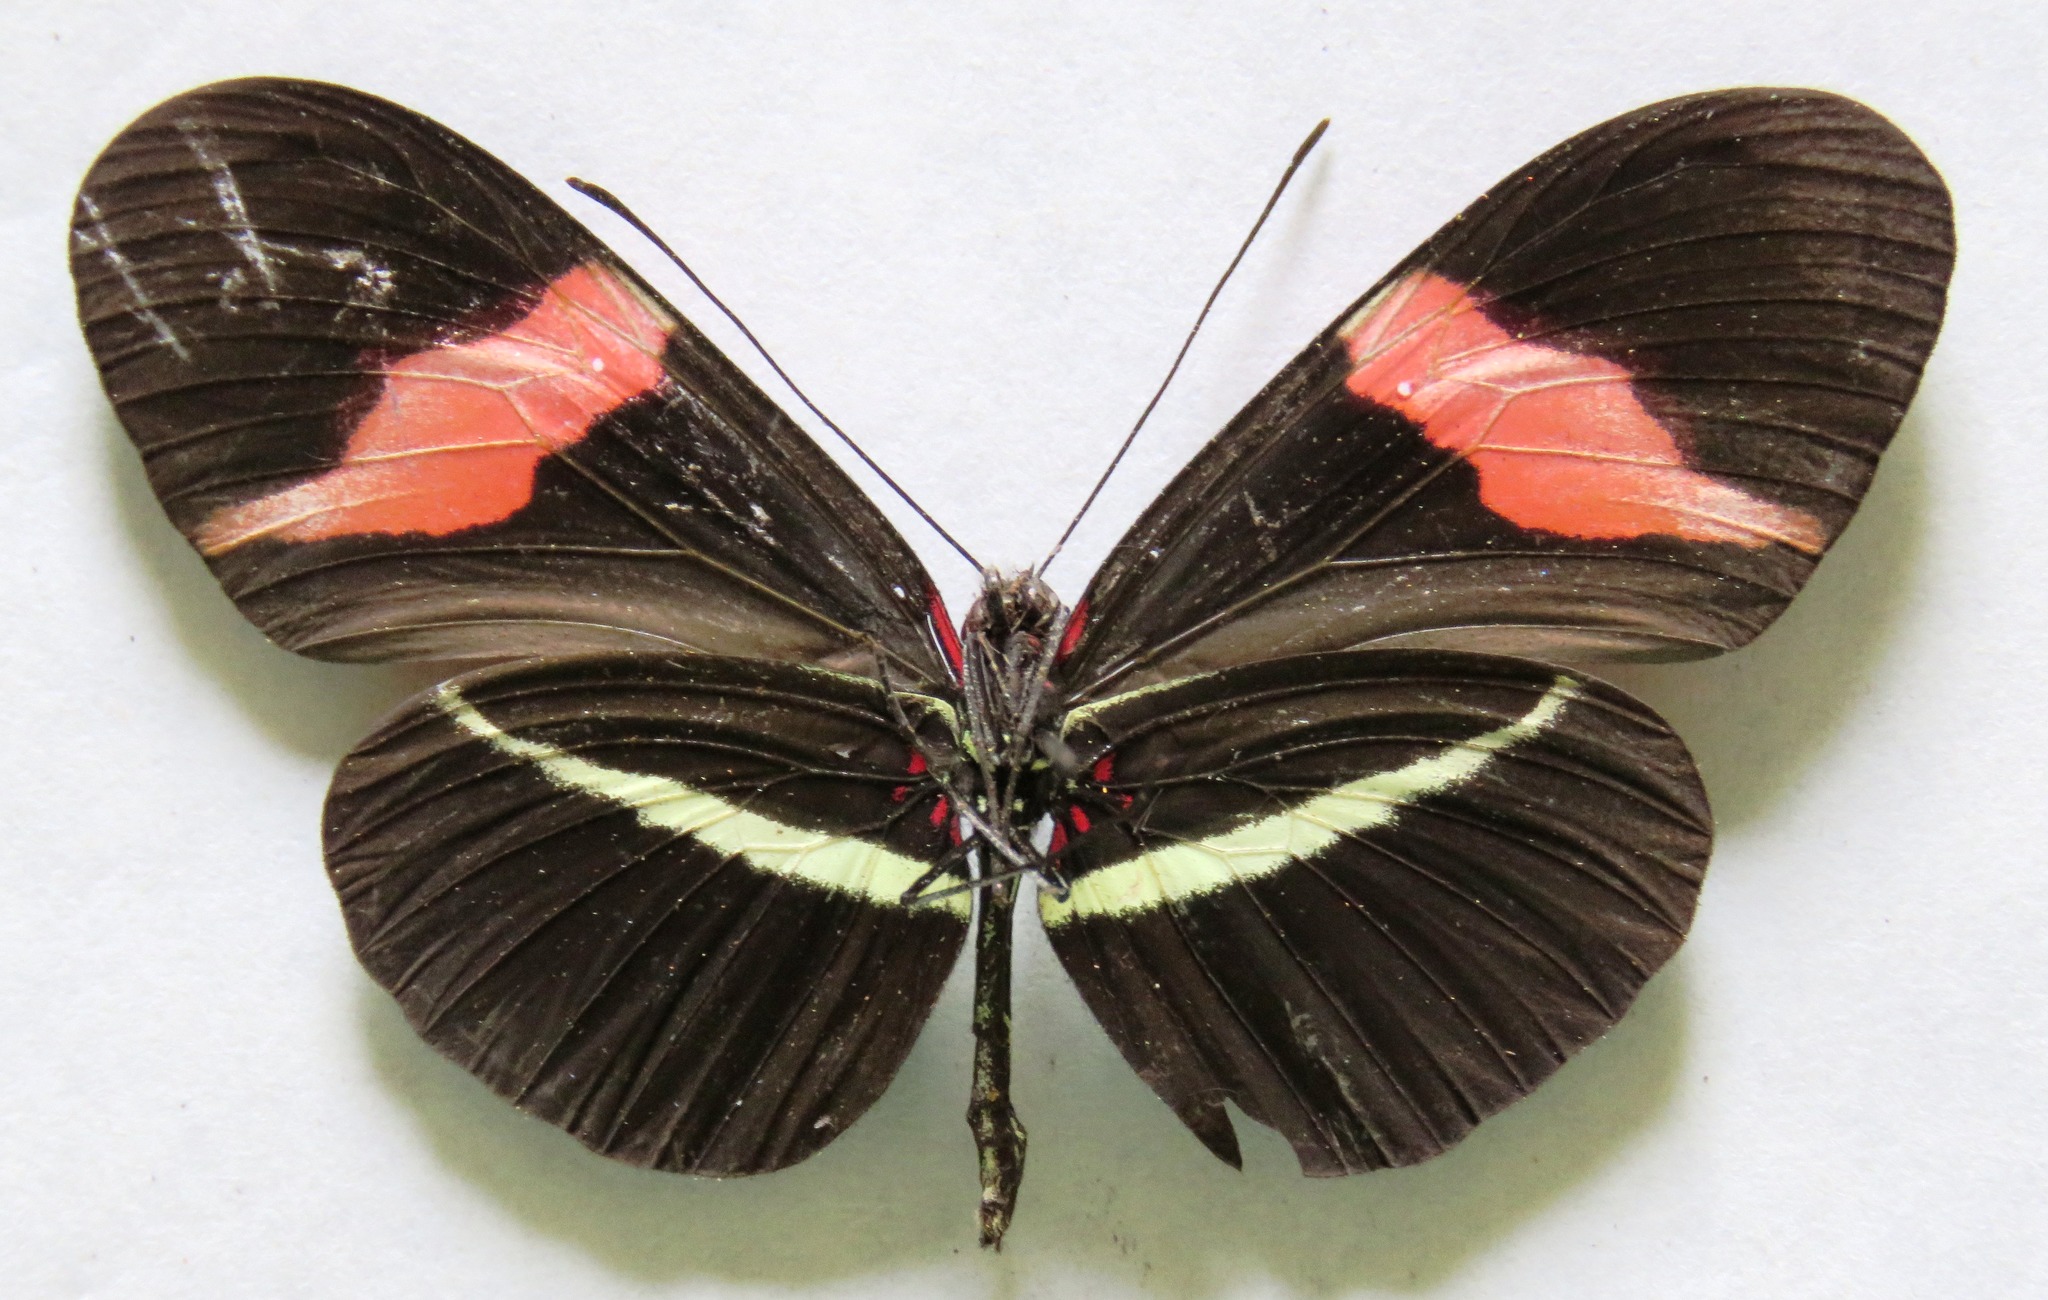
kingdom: Animalia
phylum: Arthropoda
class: Insecta
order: Lepidoptera
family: Nymphalidae
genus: Tirumala
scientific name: Tirumala petiverana
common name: Blue monarch
